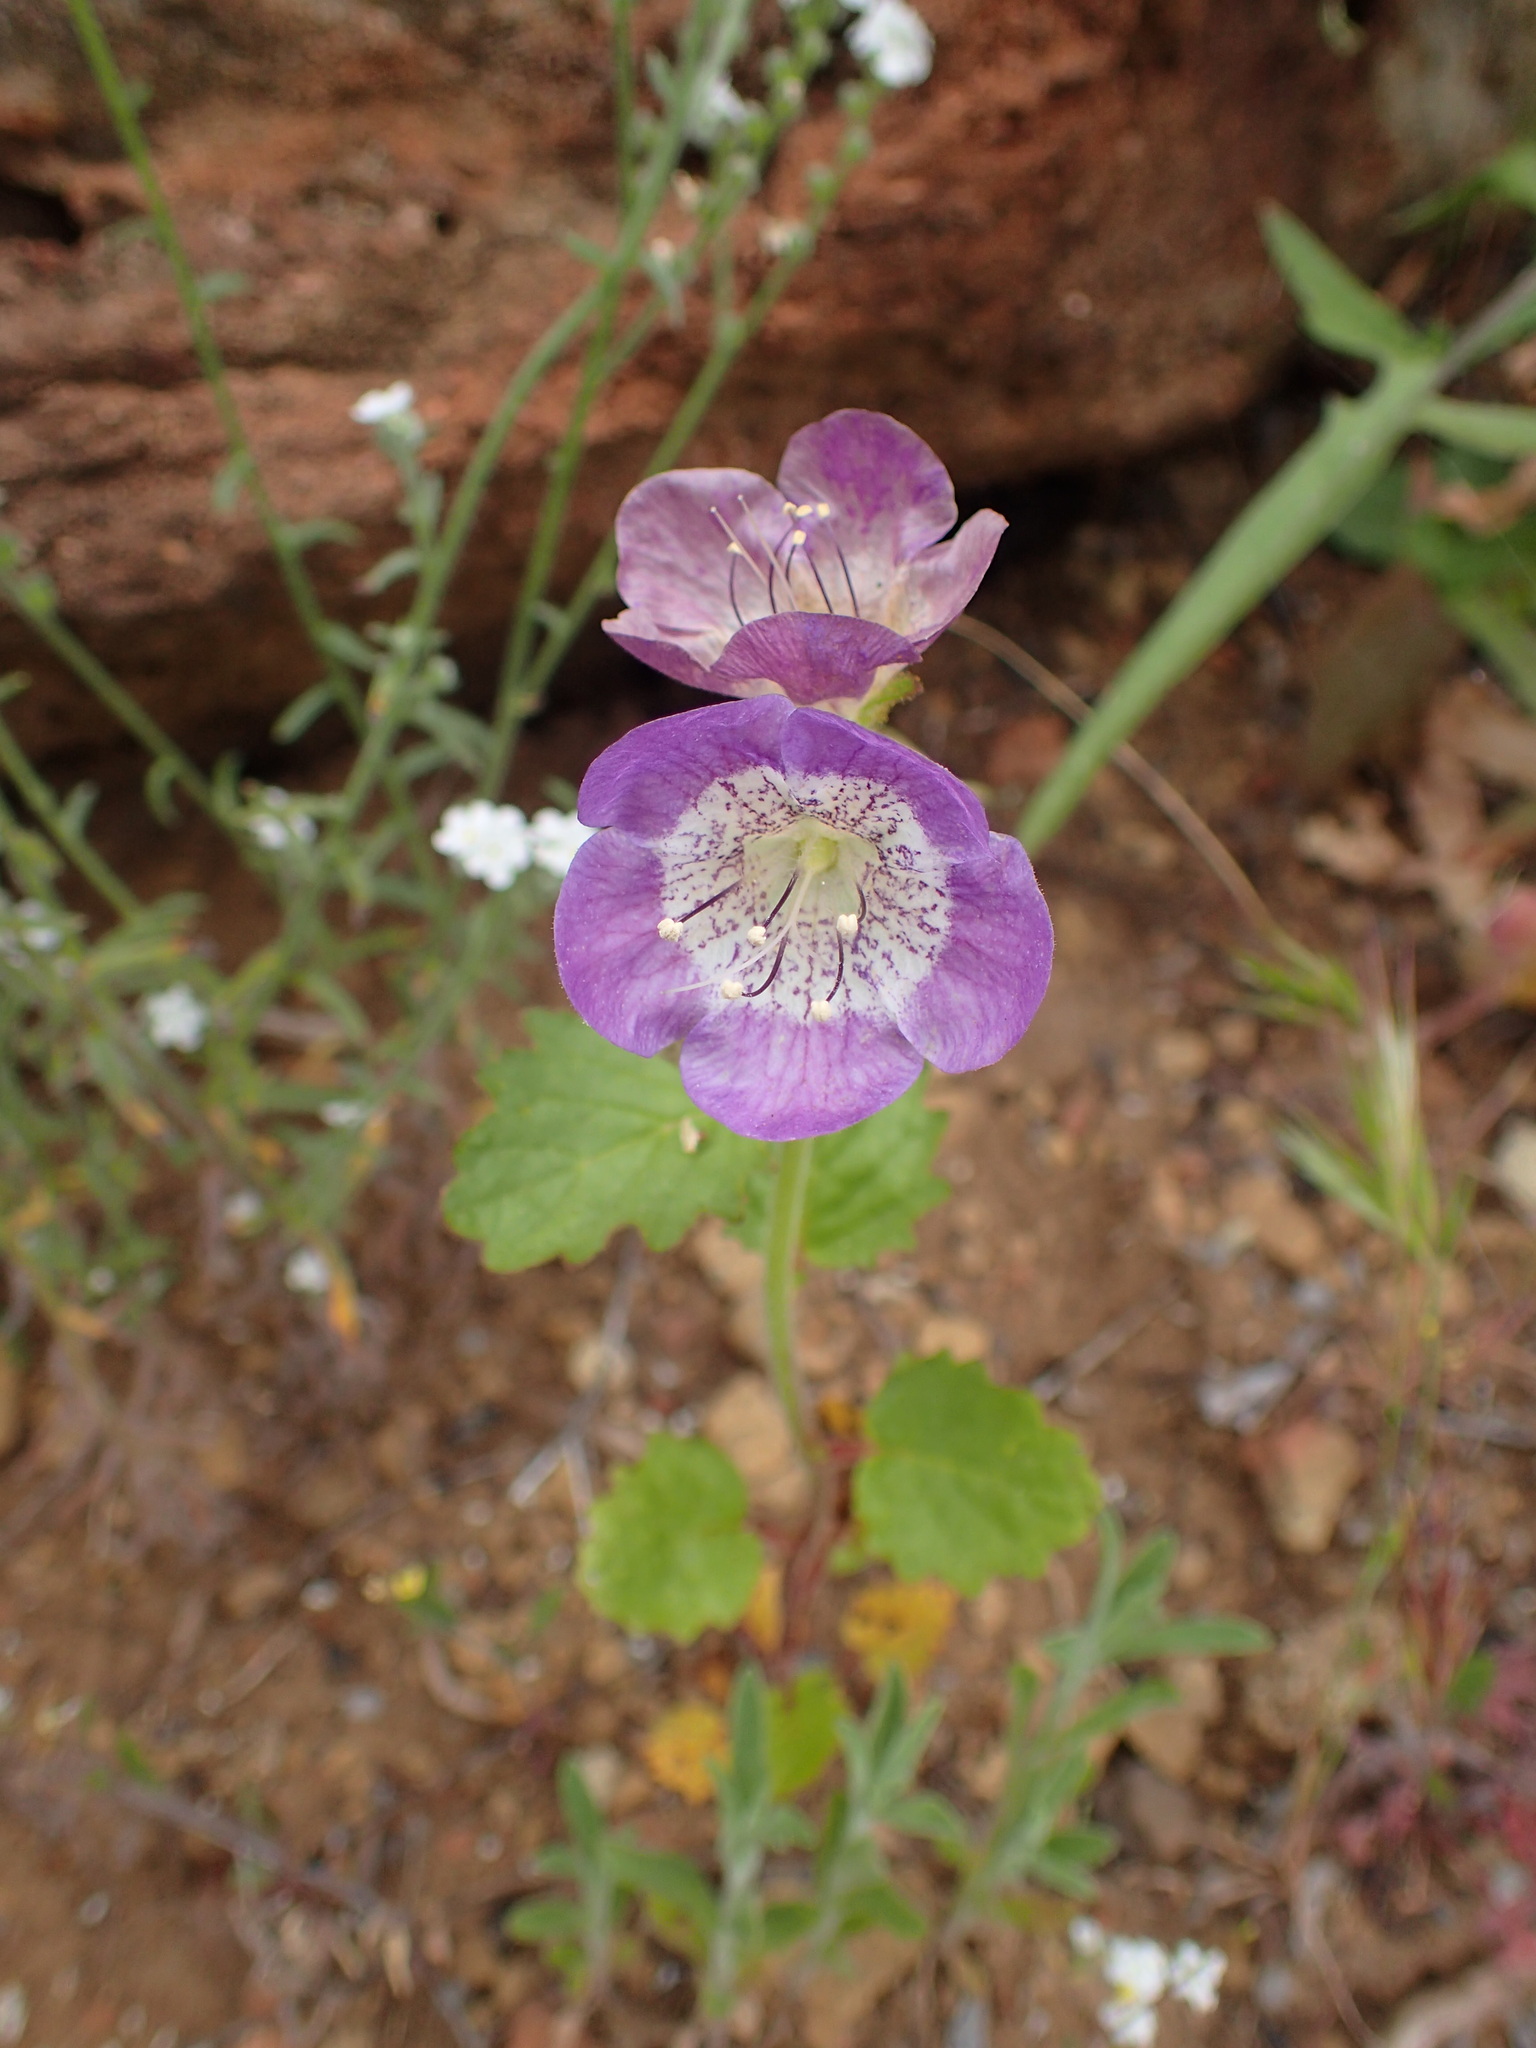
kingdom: Plantae
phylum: Tracheophyta
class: Magnoliopsida
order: Boraginales
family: Hydrophyllaceae
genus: Phacelia
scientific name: Phacelia grandiflora
